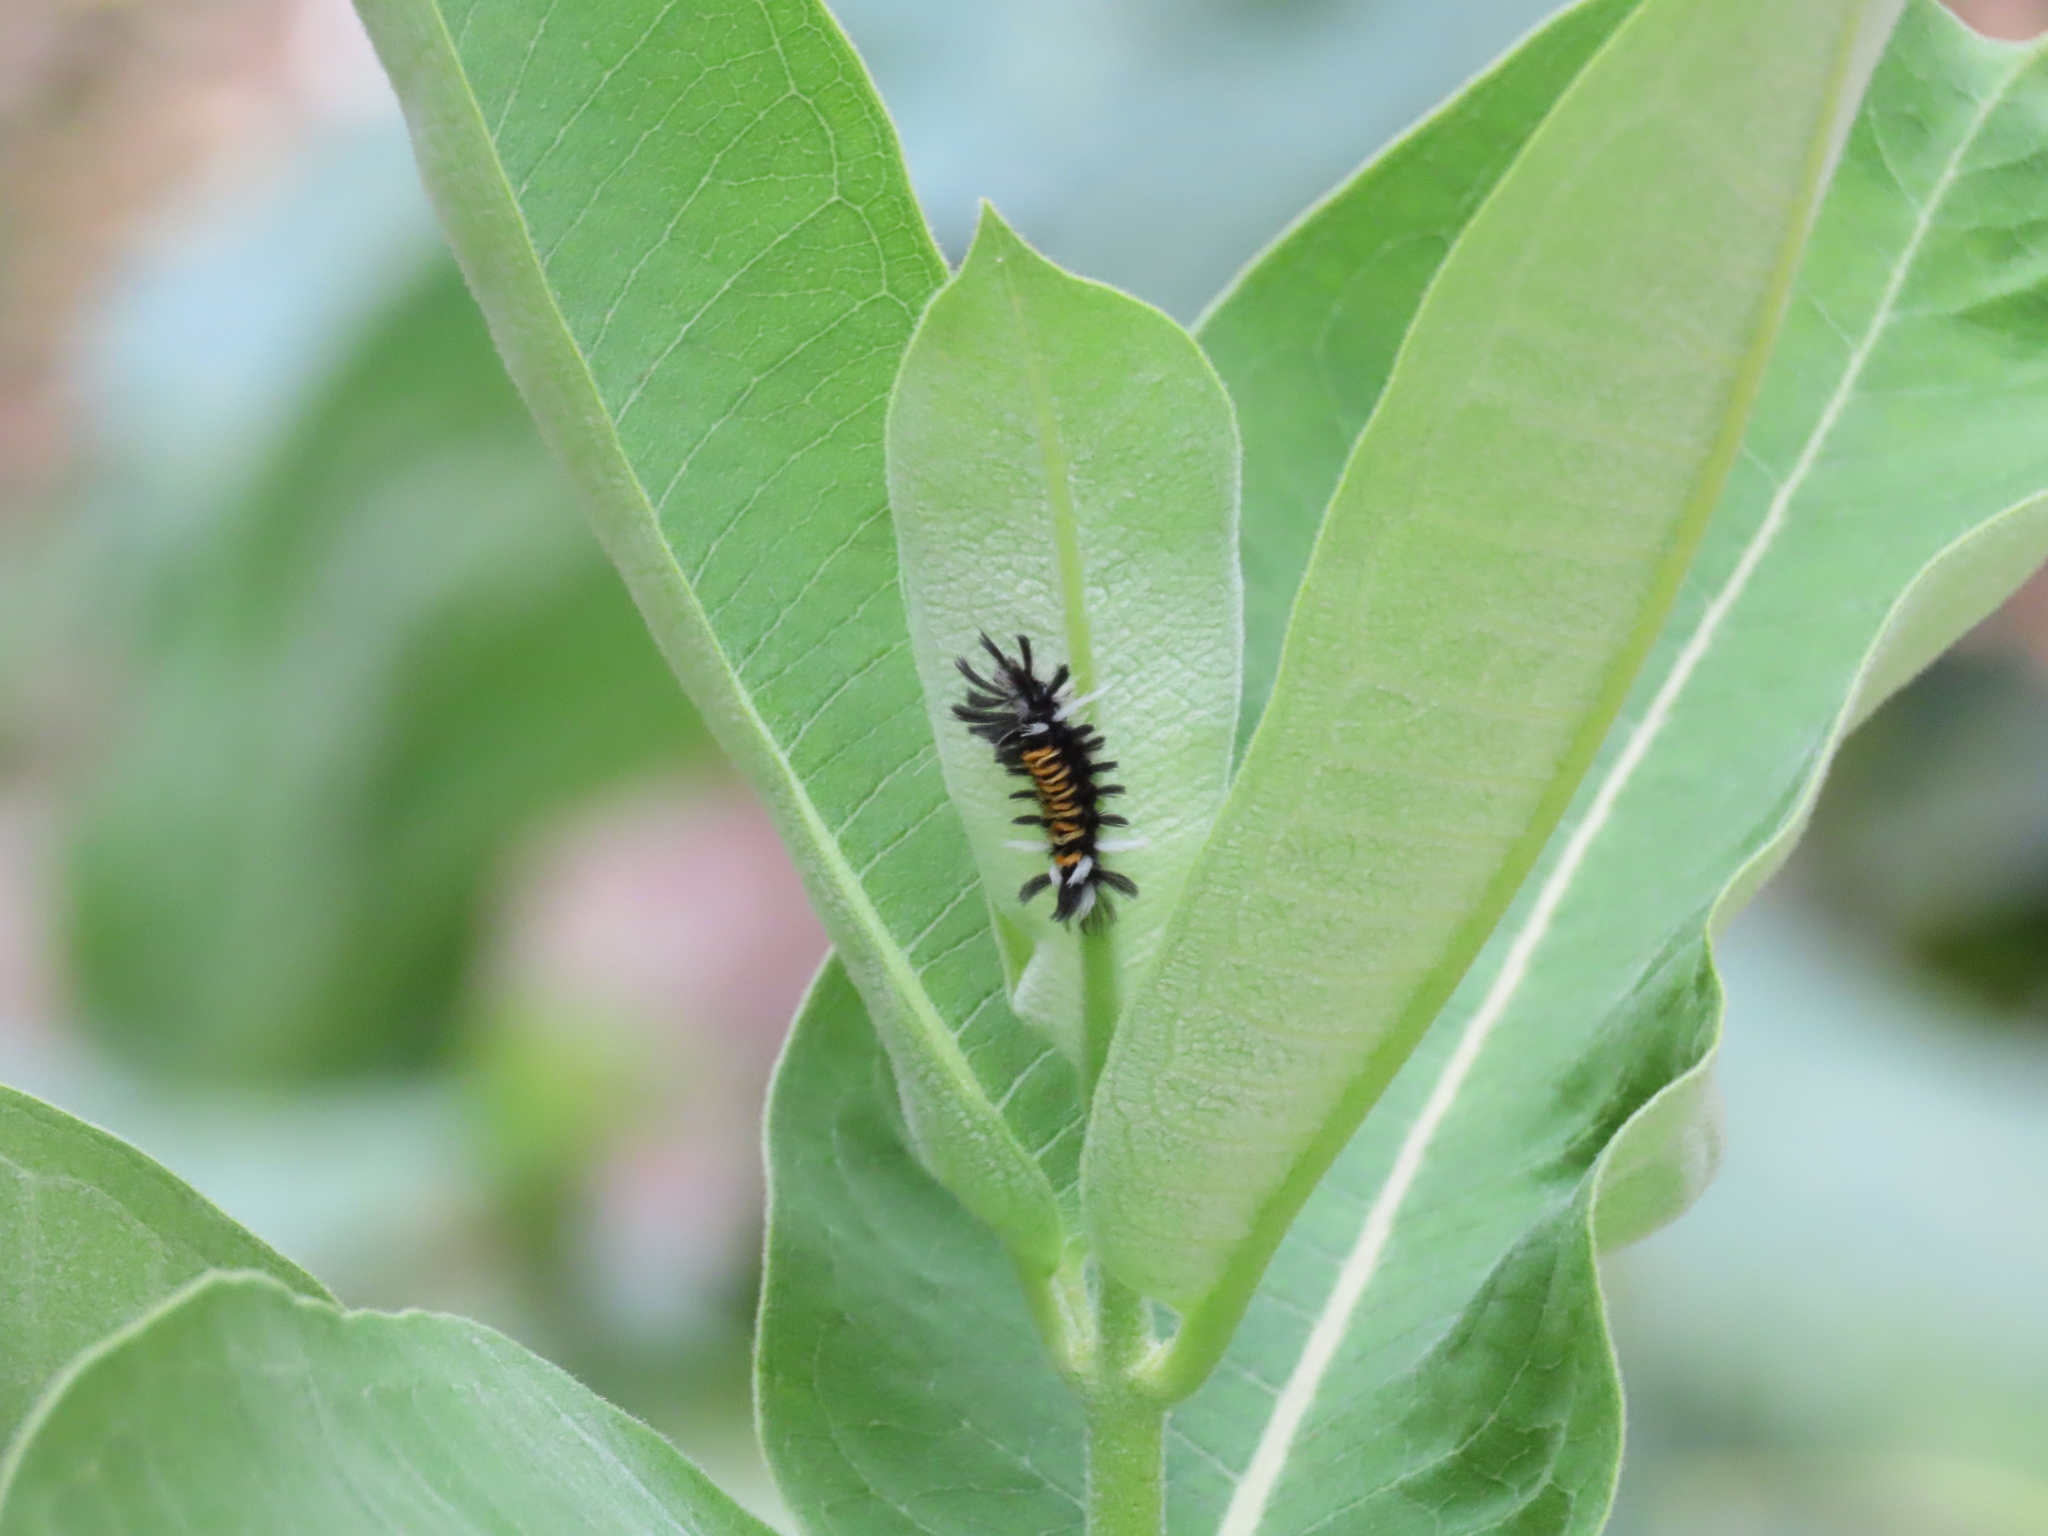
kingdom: Animalia
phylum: Arthropoda
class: Insecta
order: Lepidoptera
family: Erebidae
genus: Euchaetes
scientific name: Euchaetes egle
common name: Milkweed tussock moth
